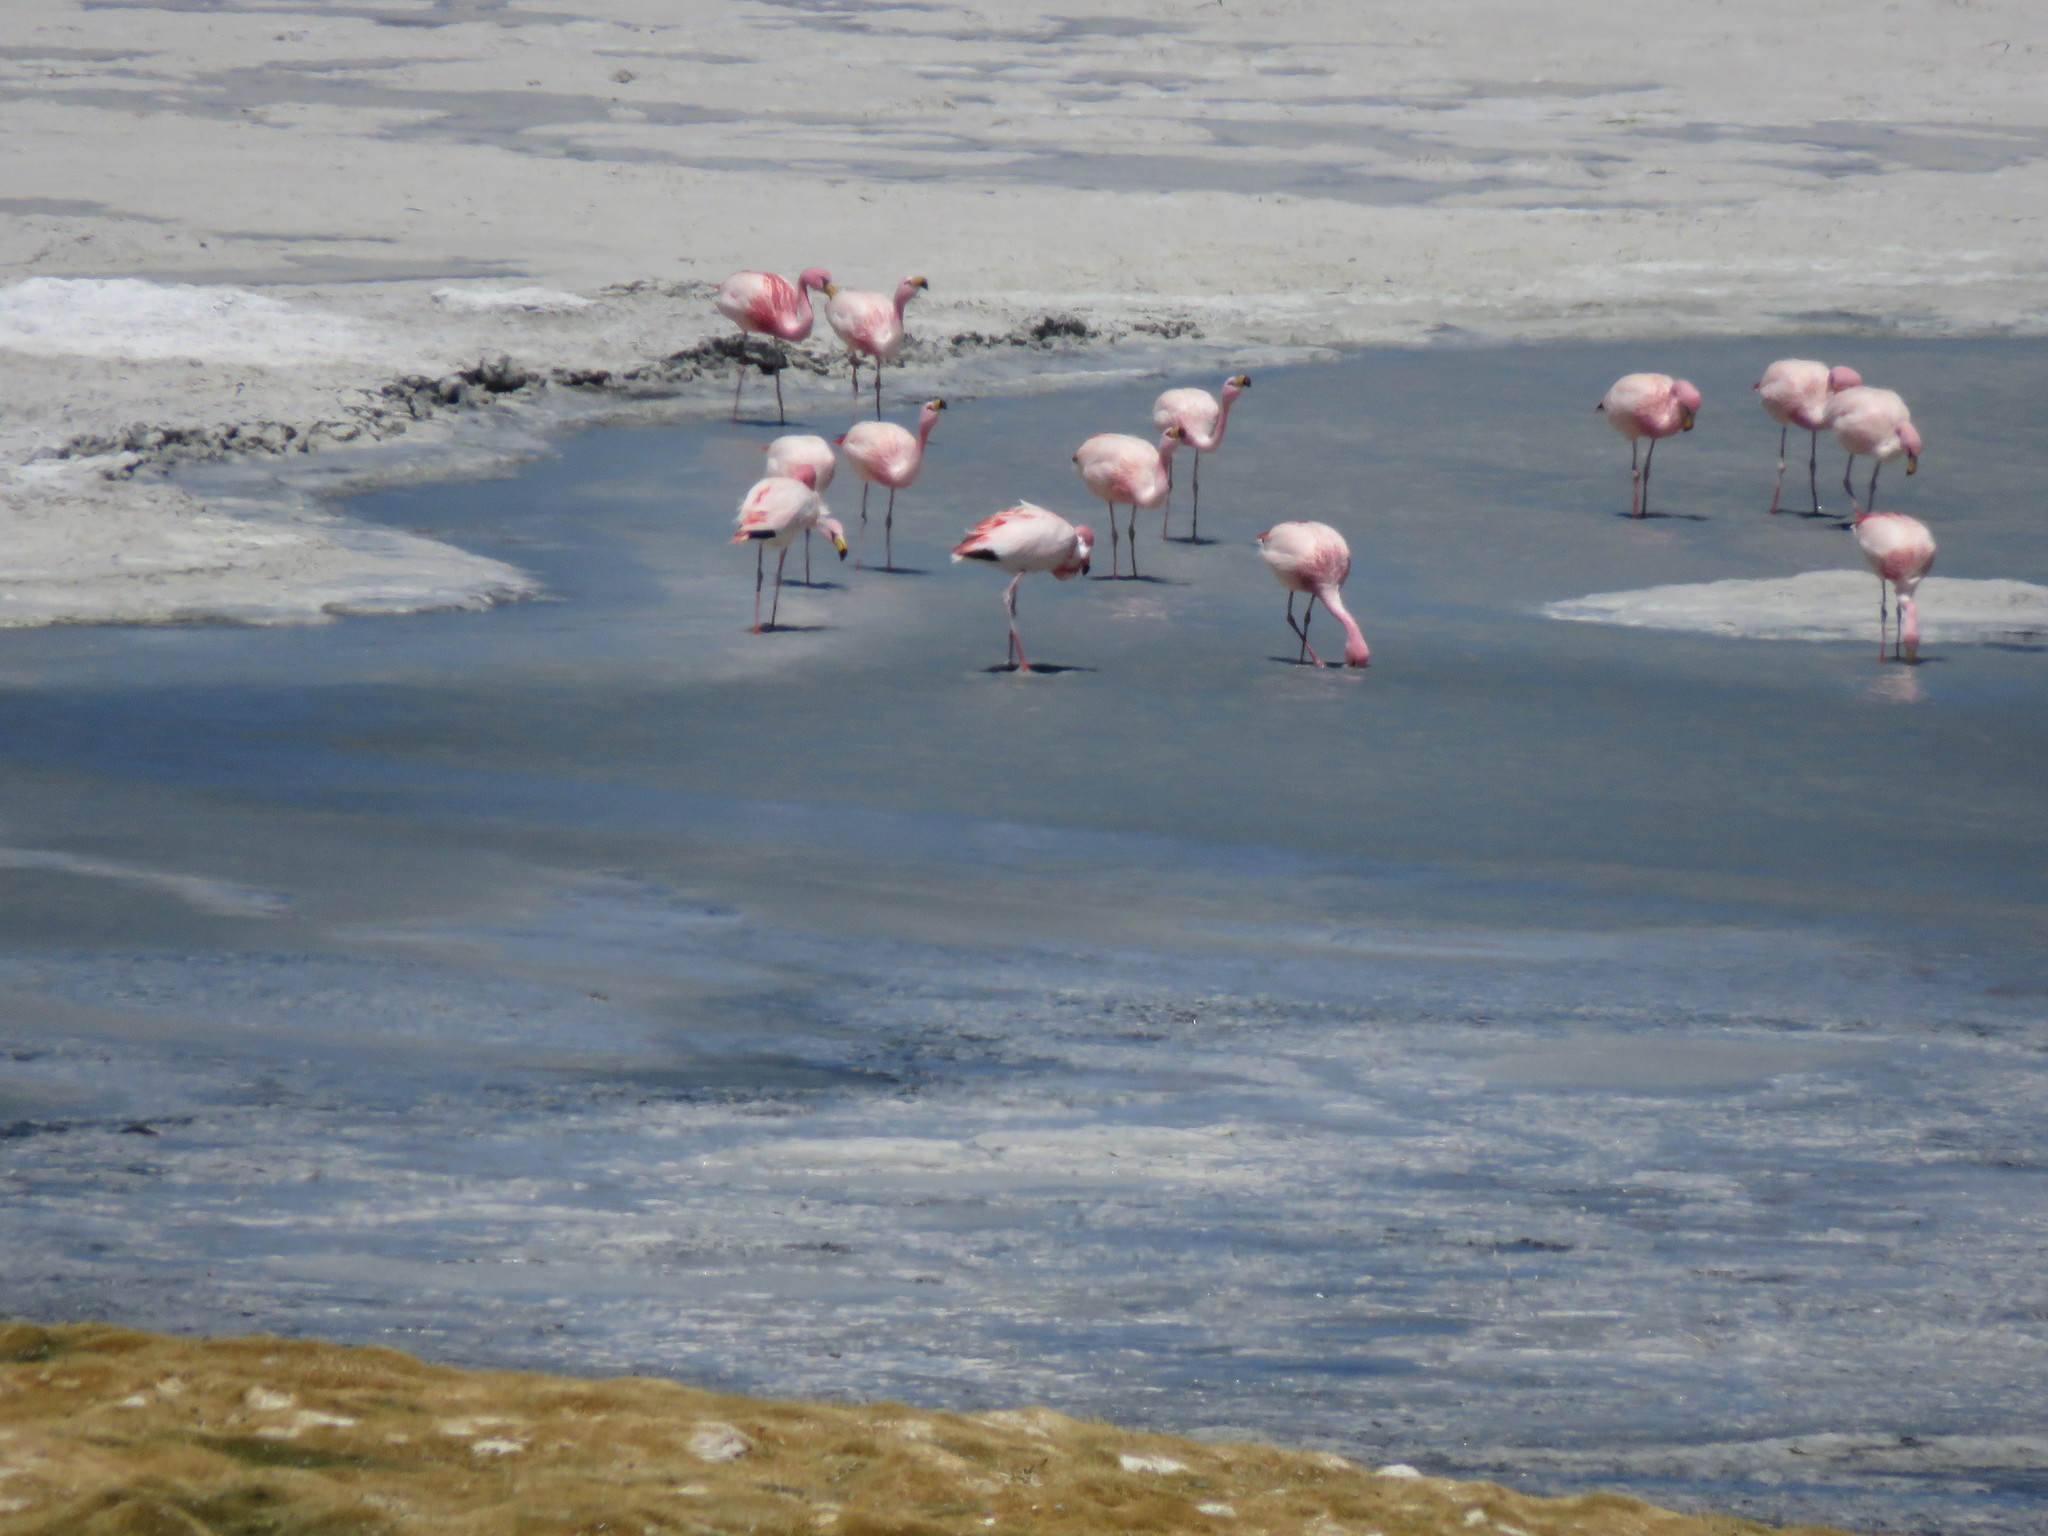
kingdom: Animalia
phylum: Chordata
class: Aves
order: Phoenicopteriformes
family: Phoenicopteridae
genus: Phoenicoparrus
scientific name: Phoenicoparrus jamesi
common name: James's flamingo
